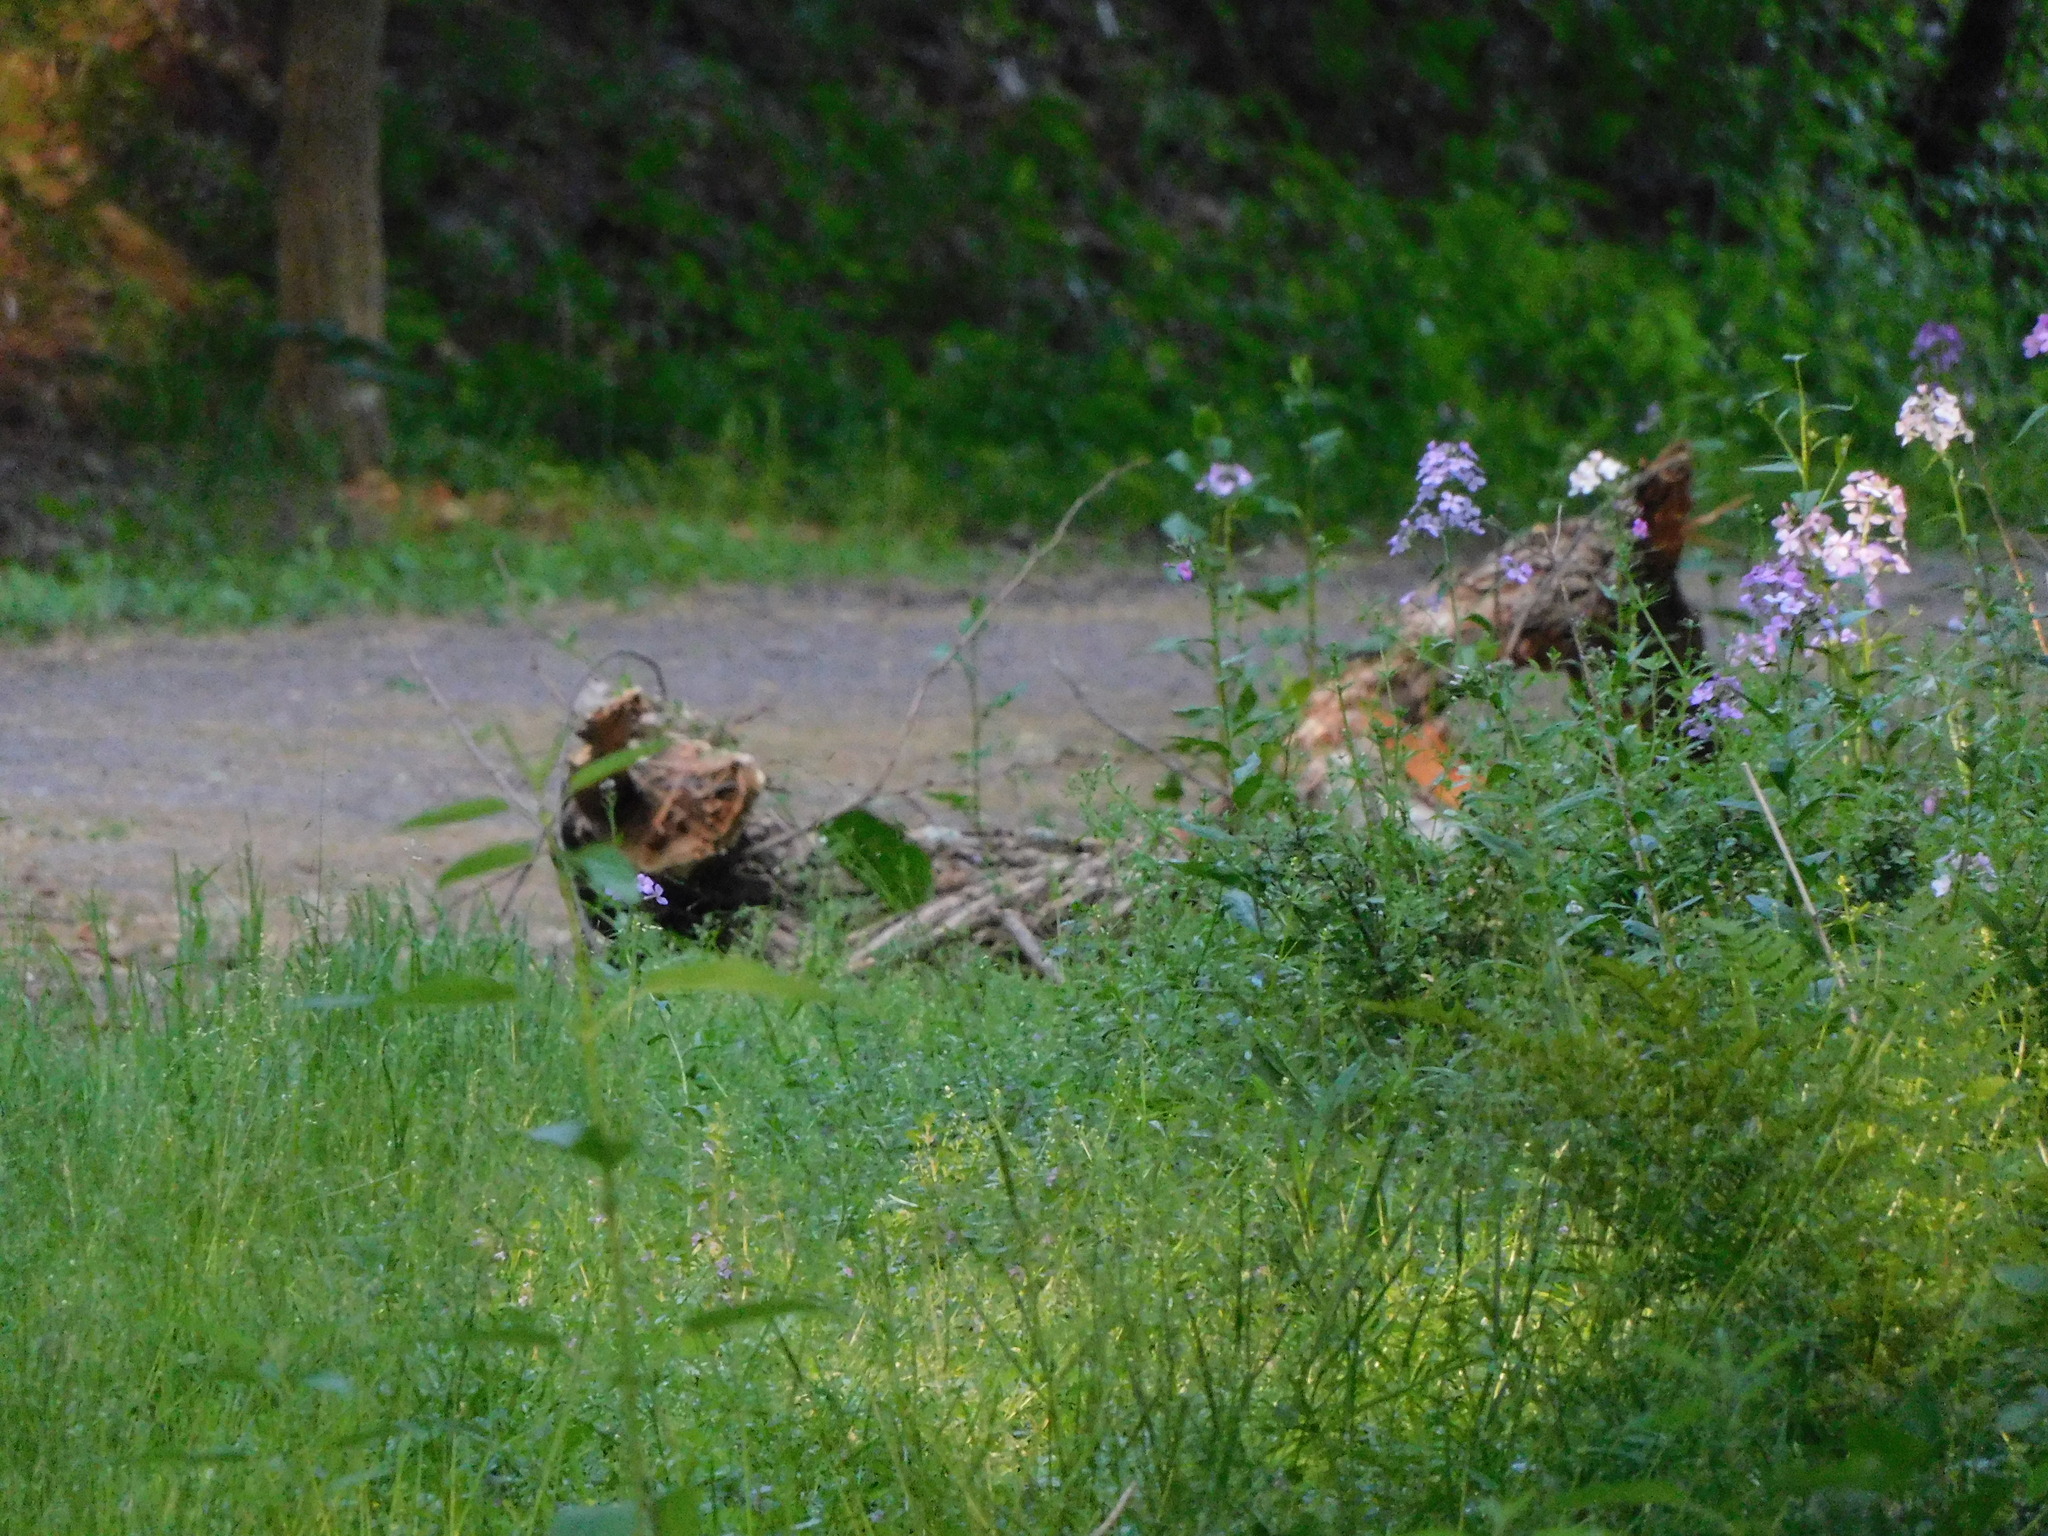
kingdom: Plantae
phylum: Tracheophyta
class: Magnoliopsida
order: Brassicales
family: Brassicaceae
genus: Hesperis
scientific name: Hesperis matronalis
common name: Dame's-violet
